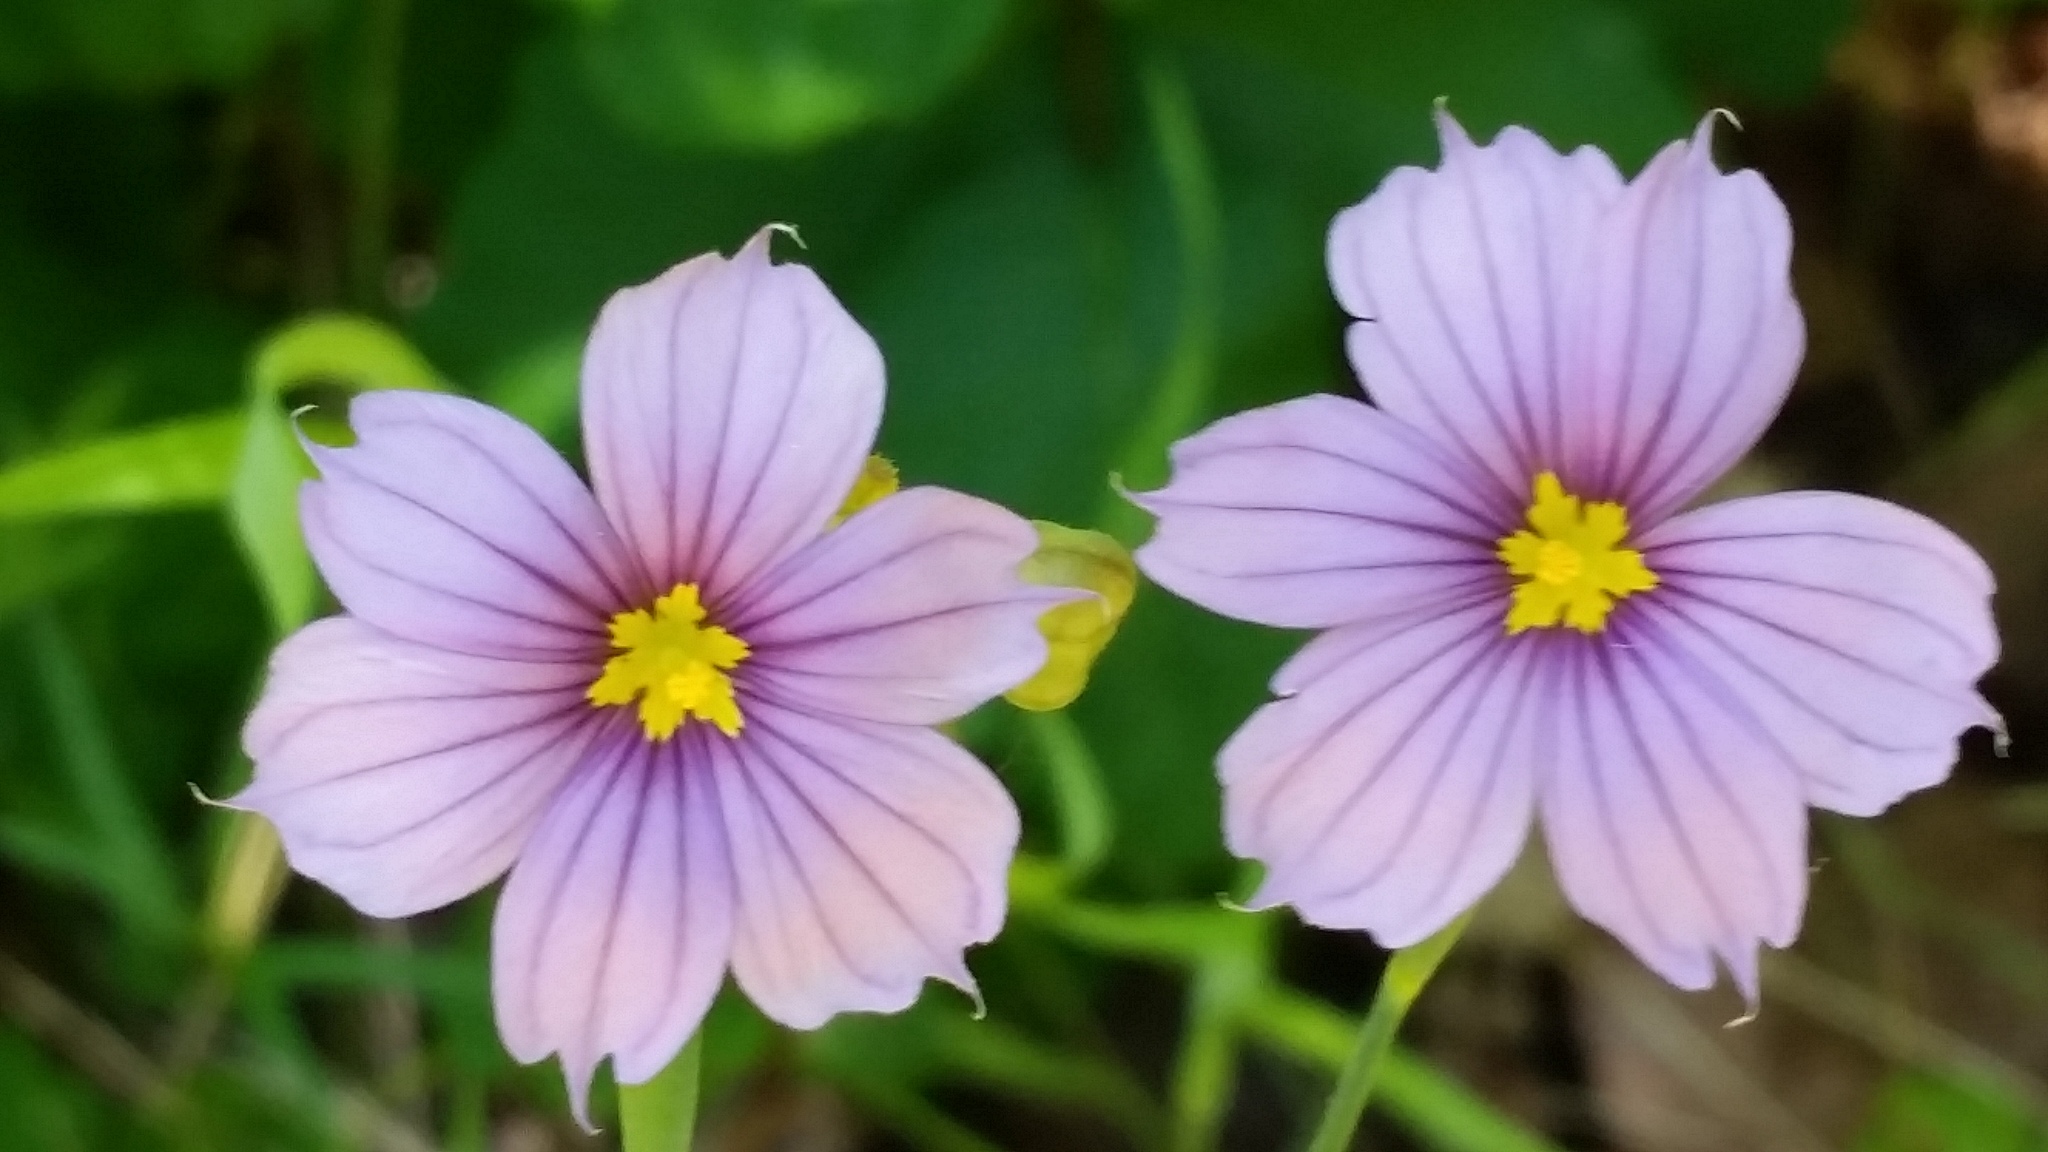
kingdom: Plantae
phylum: Tracheophyta
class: Liliopsida
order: Asparagales
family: Iridaceae
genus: Sisyrinchium
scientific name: Sisyrinchium bellum
